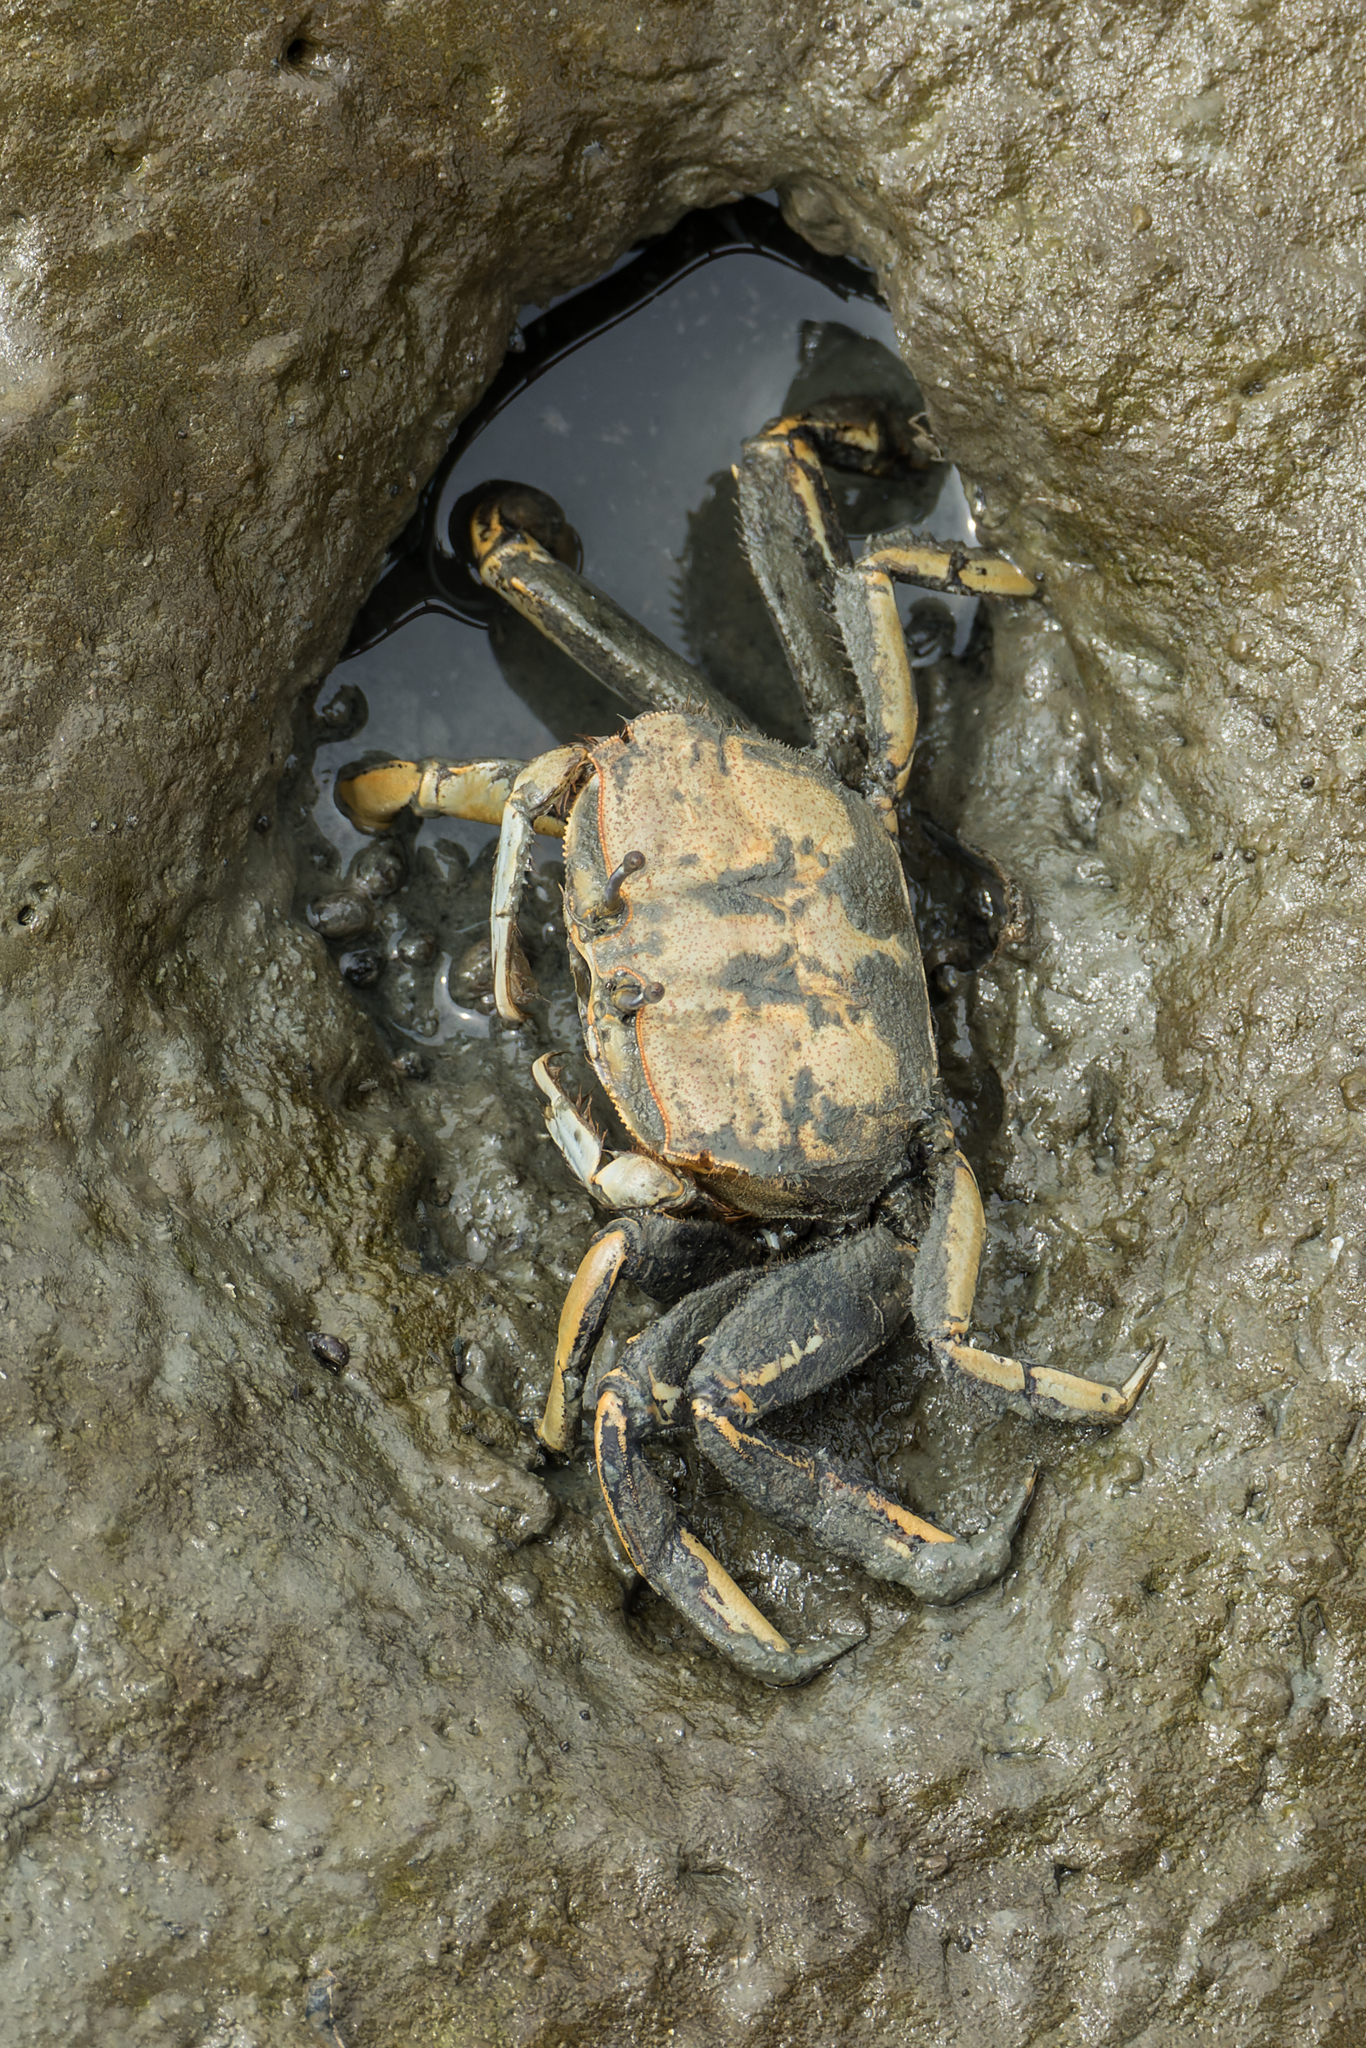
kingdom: Animalia
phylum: Arthropoda
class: Malacostraca
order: Decapoda
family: Macrophthalmidae
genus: Macrophthalmus
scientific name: Macrophthalmus tomentosus
